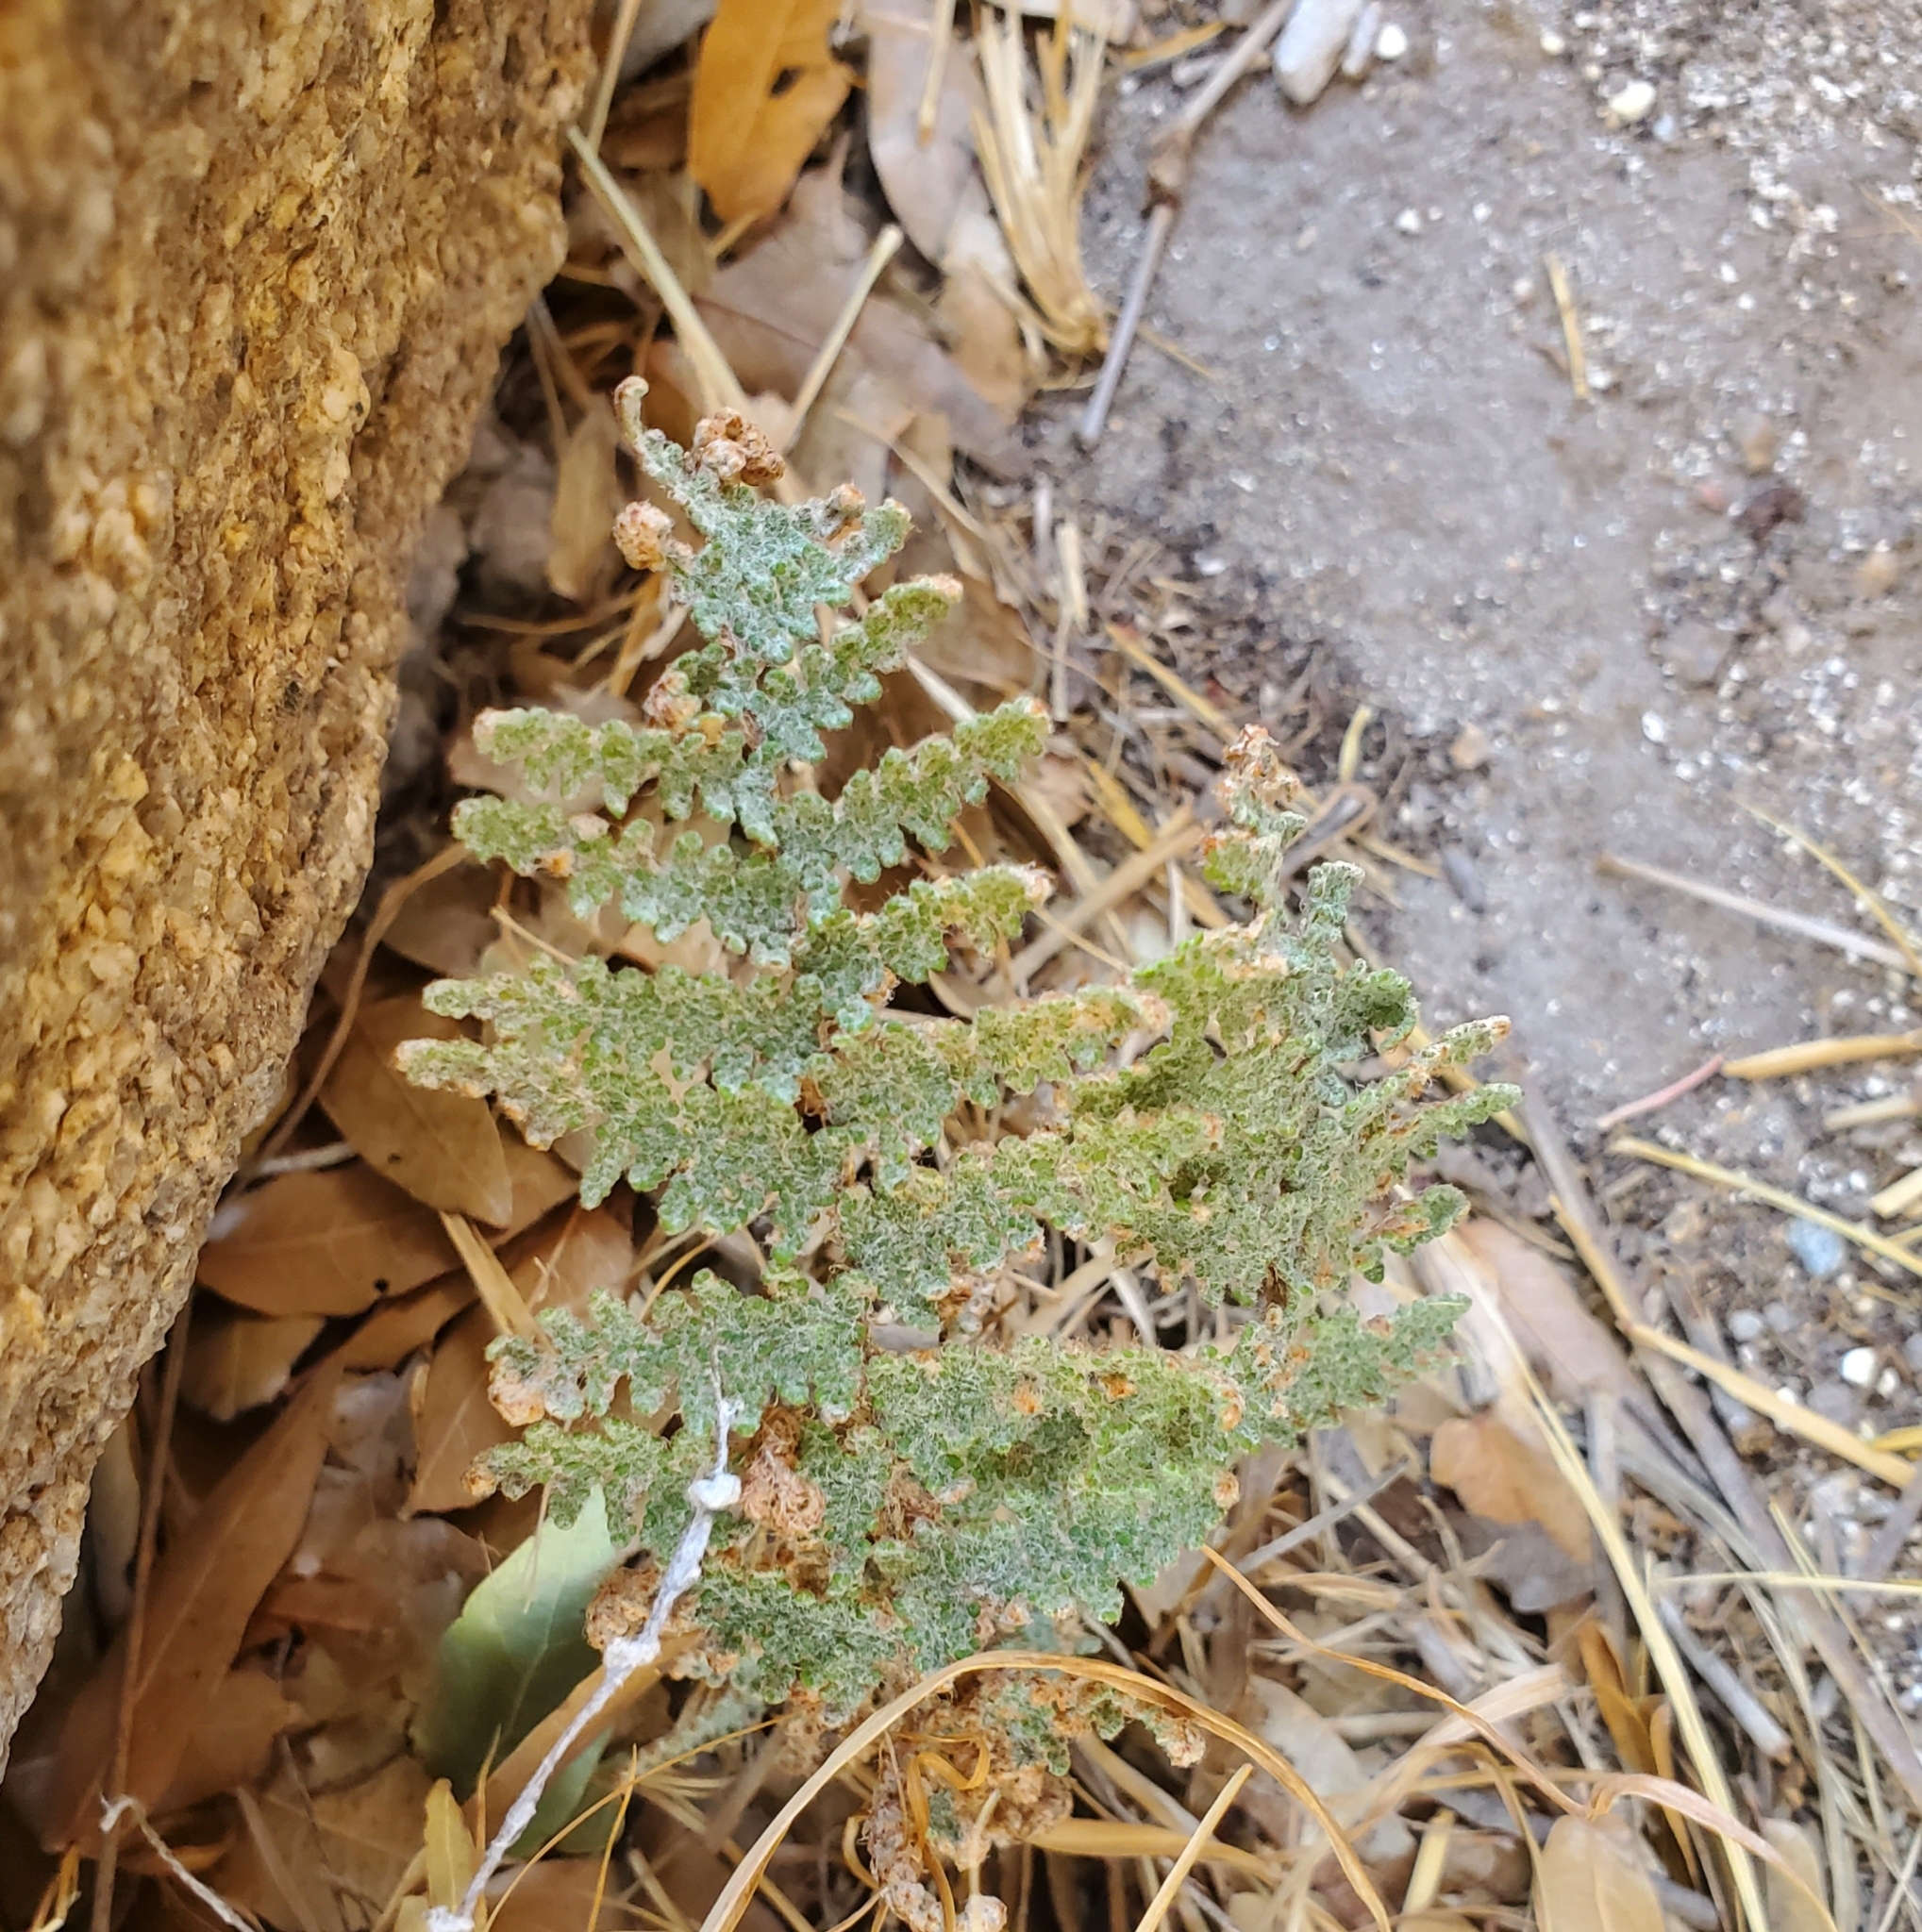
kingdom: Plantae
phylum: Tracheophyta
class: Polypodiopsida
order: Polypodiales
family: Pteridaceae
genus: Myriopteris
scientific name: Myriopteris lindheimeri
